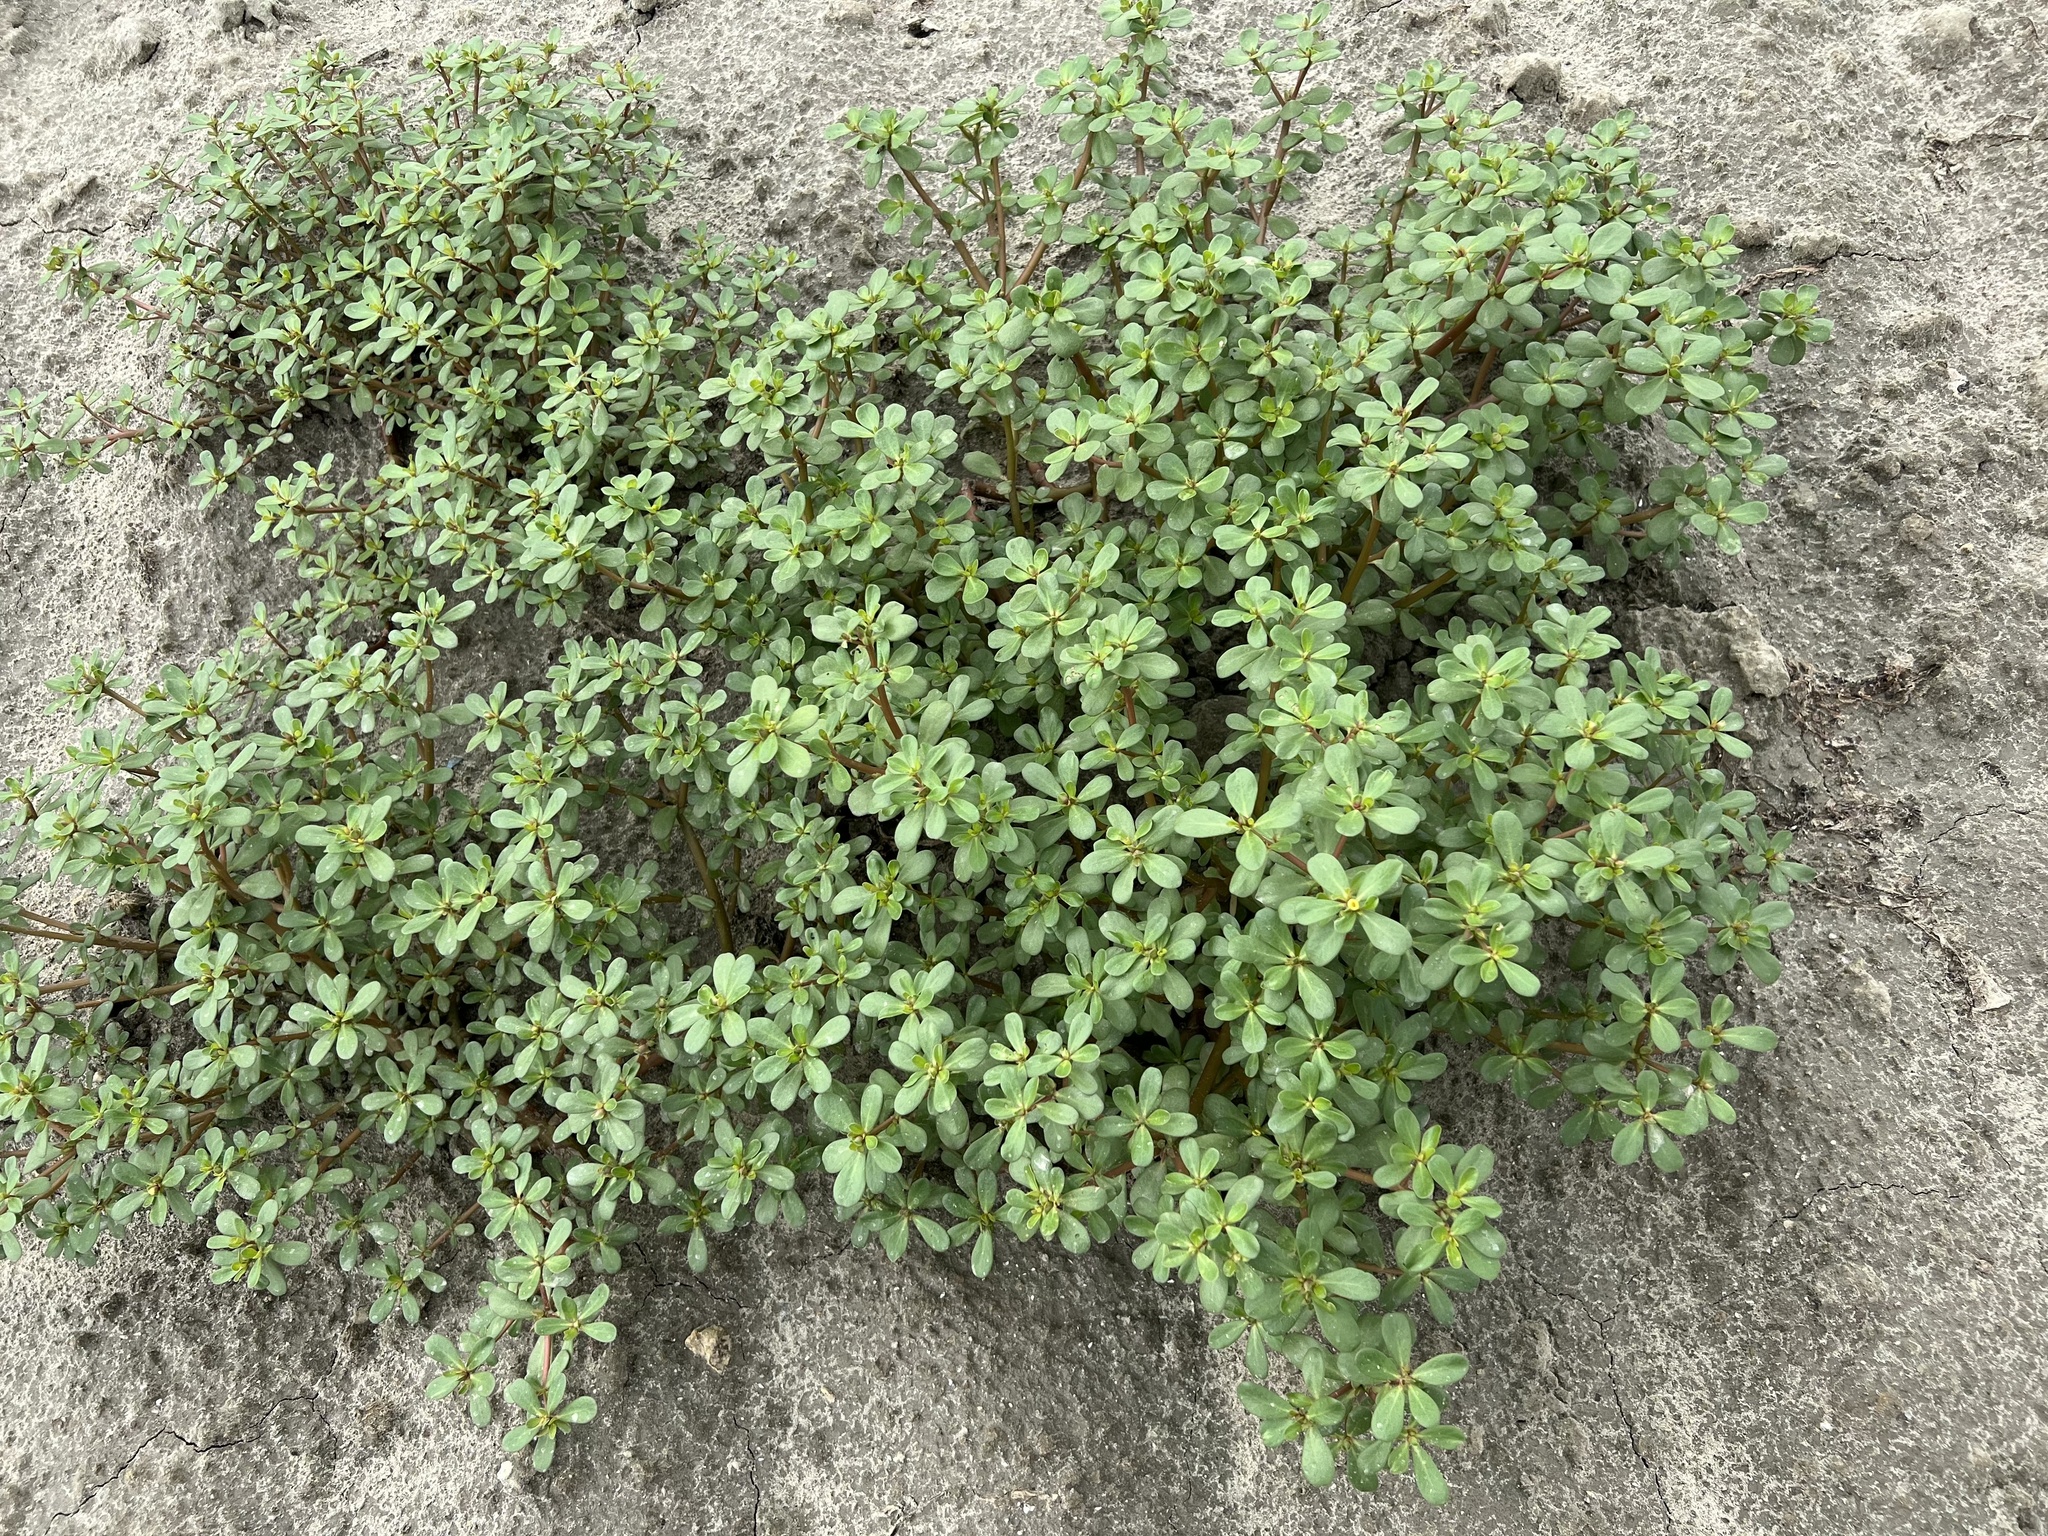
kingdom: Plantae
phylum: Tracheophyta
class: Magnoliopsida
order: Caryophyllales
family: Portulacaceae
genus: Portulaca
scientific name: Portulaca oleracea
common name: Common purslane
